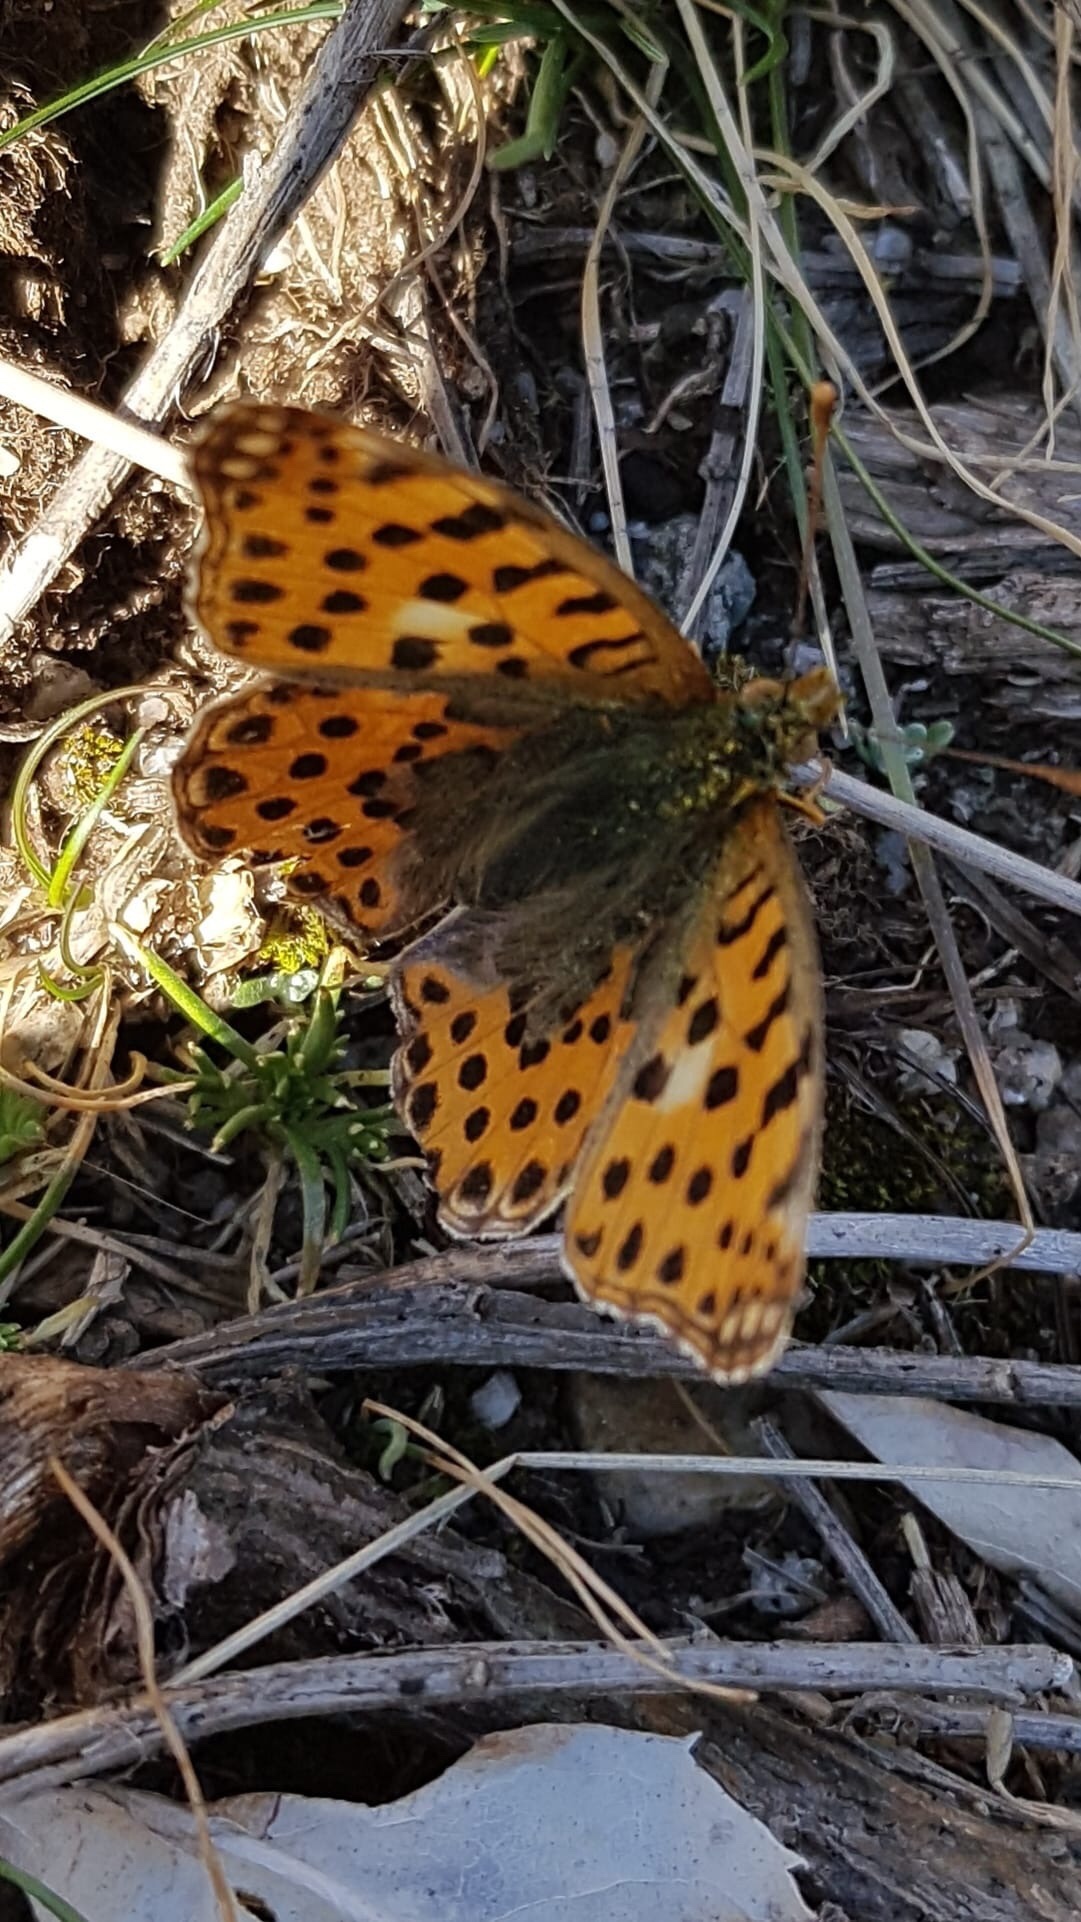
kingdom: Animalia
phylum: Arthropoda
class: Insecta
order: Lepidoptera
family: Nymphalidae
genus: Issoria
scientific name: Issoria lathonia
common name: Queen of spain fritillary
